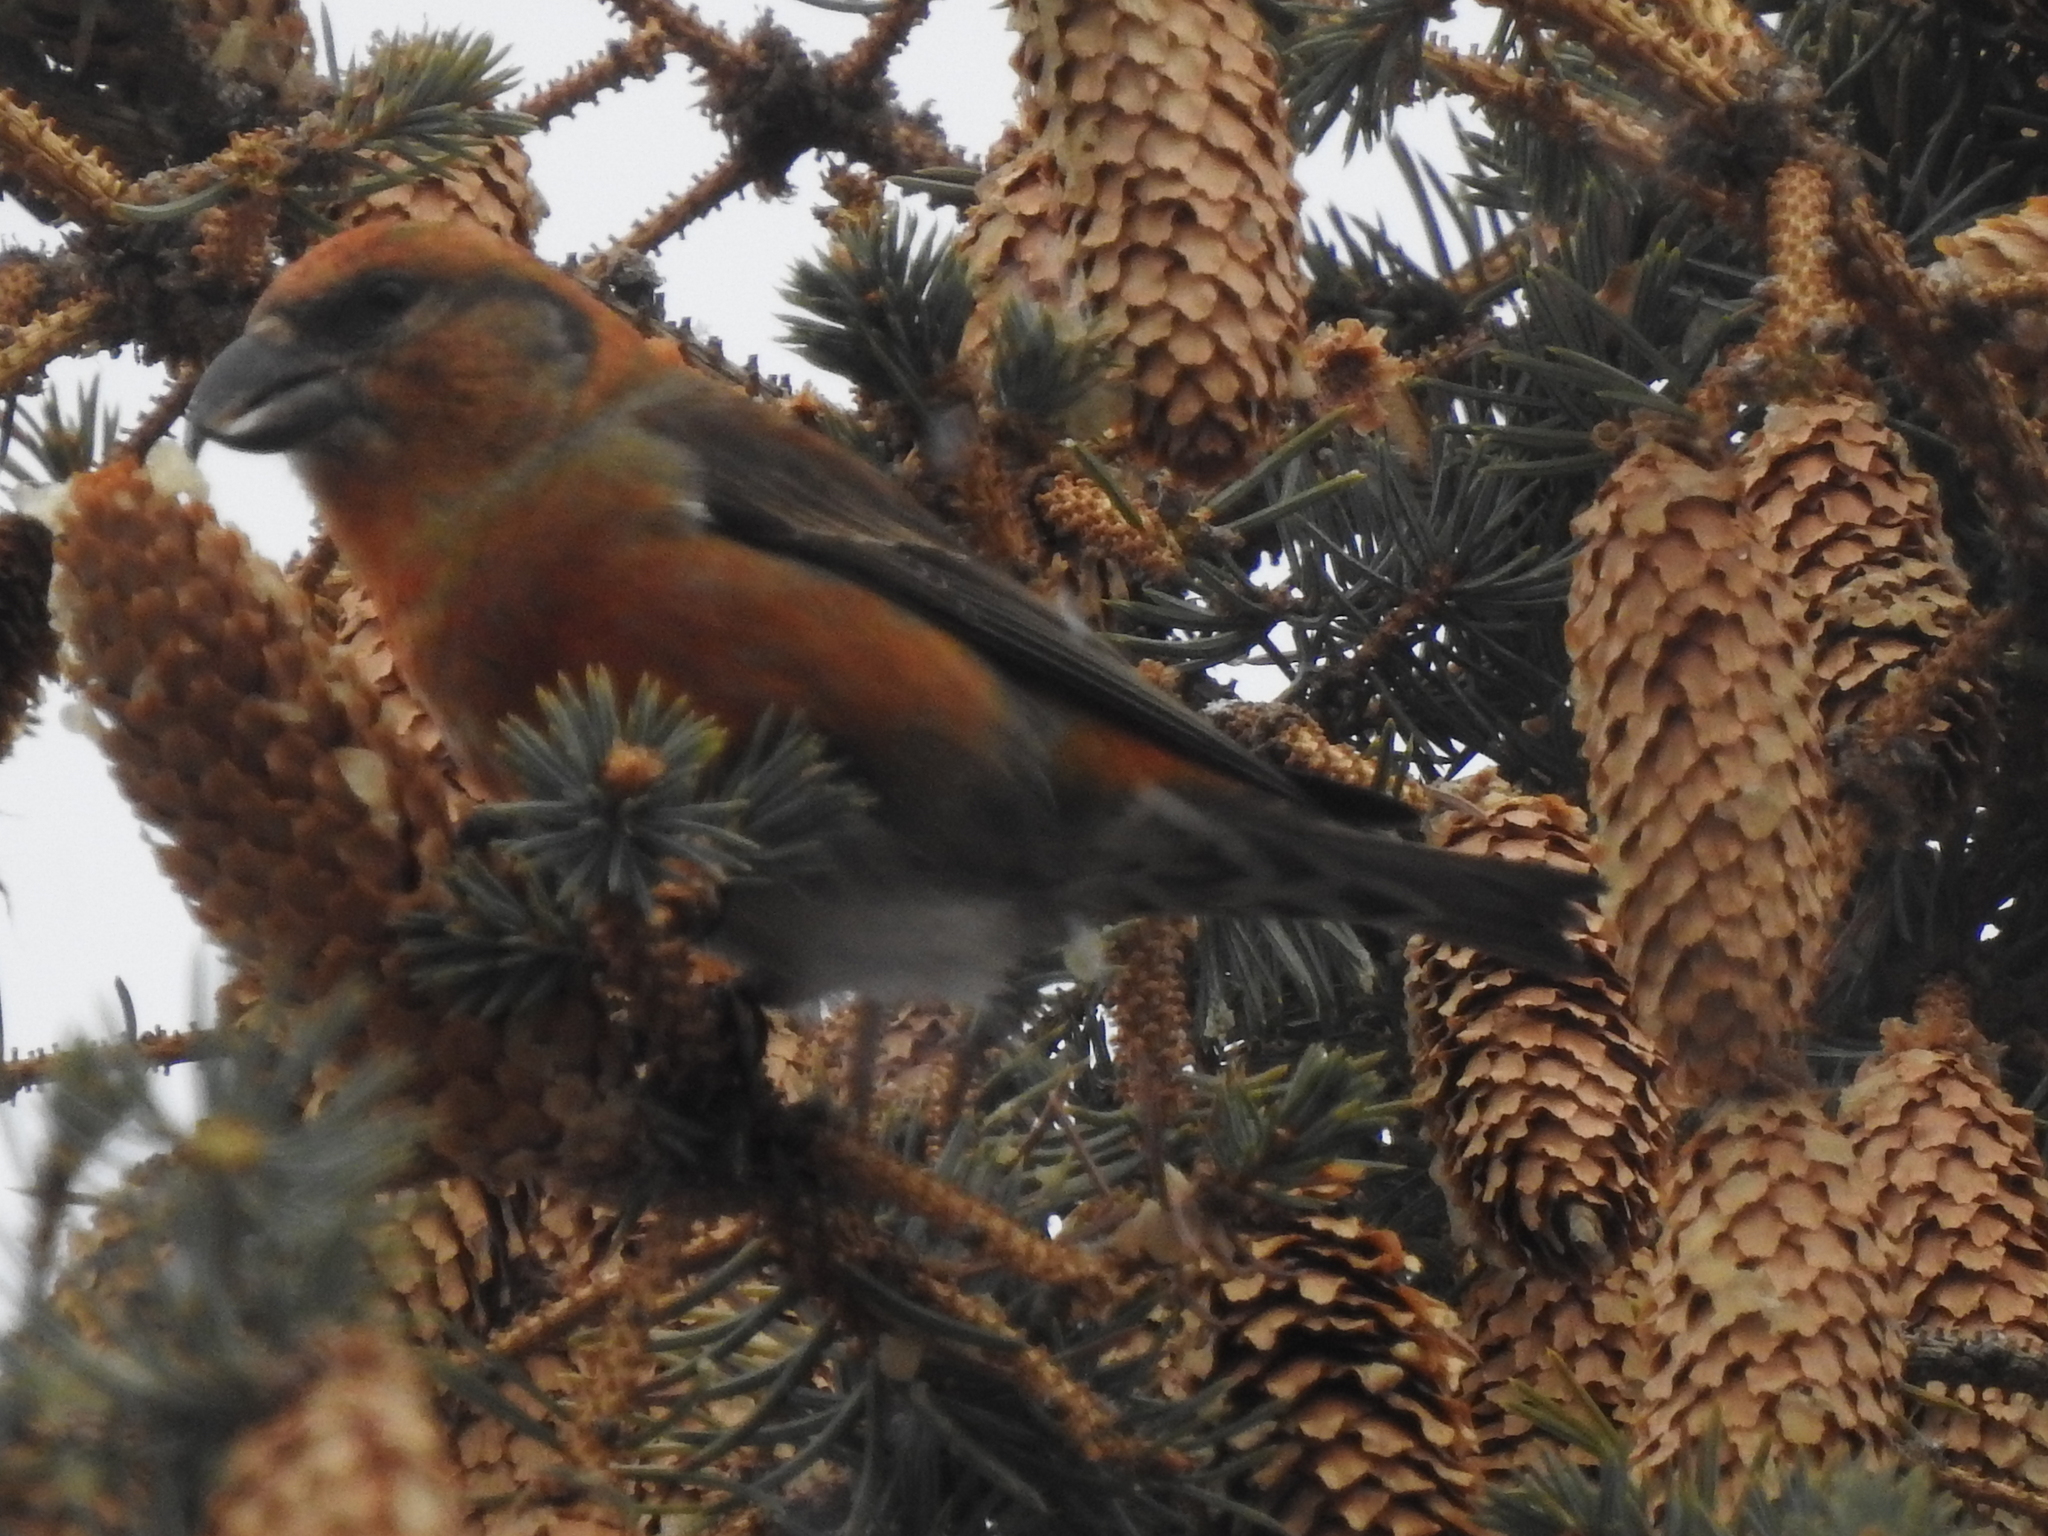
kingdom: Animalia
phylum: Chordata
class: Aves
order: Passeriformes
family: Fringillidae
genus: Loxia
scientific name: Loxia curvirostra
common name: Red crossbill
